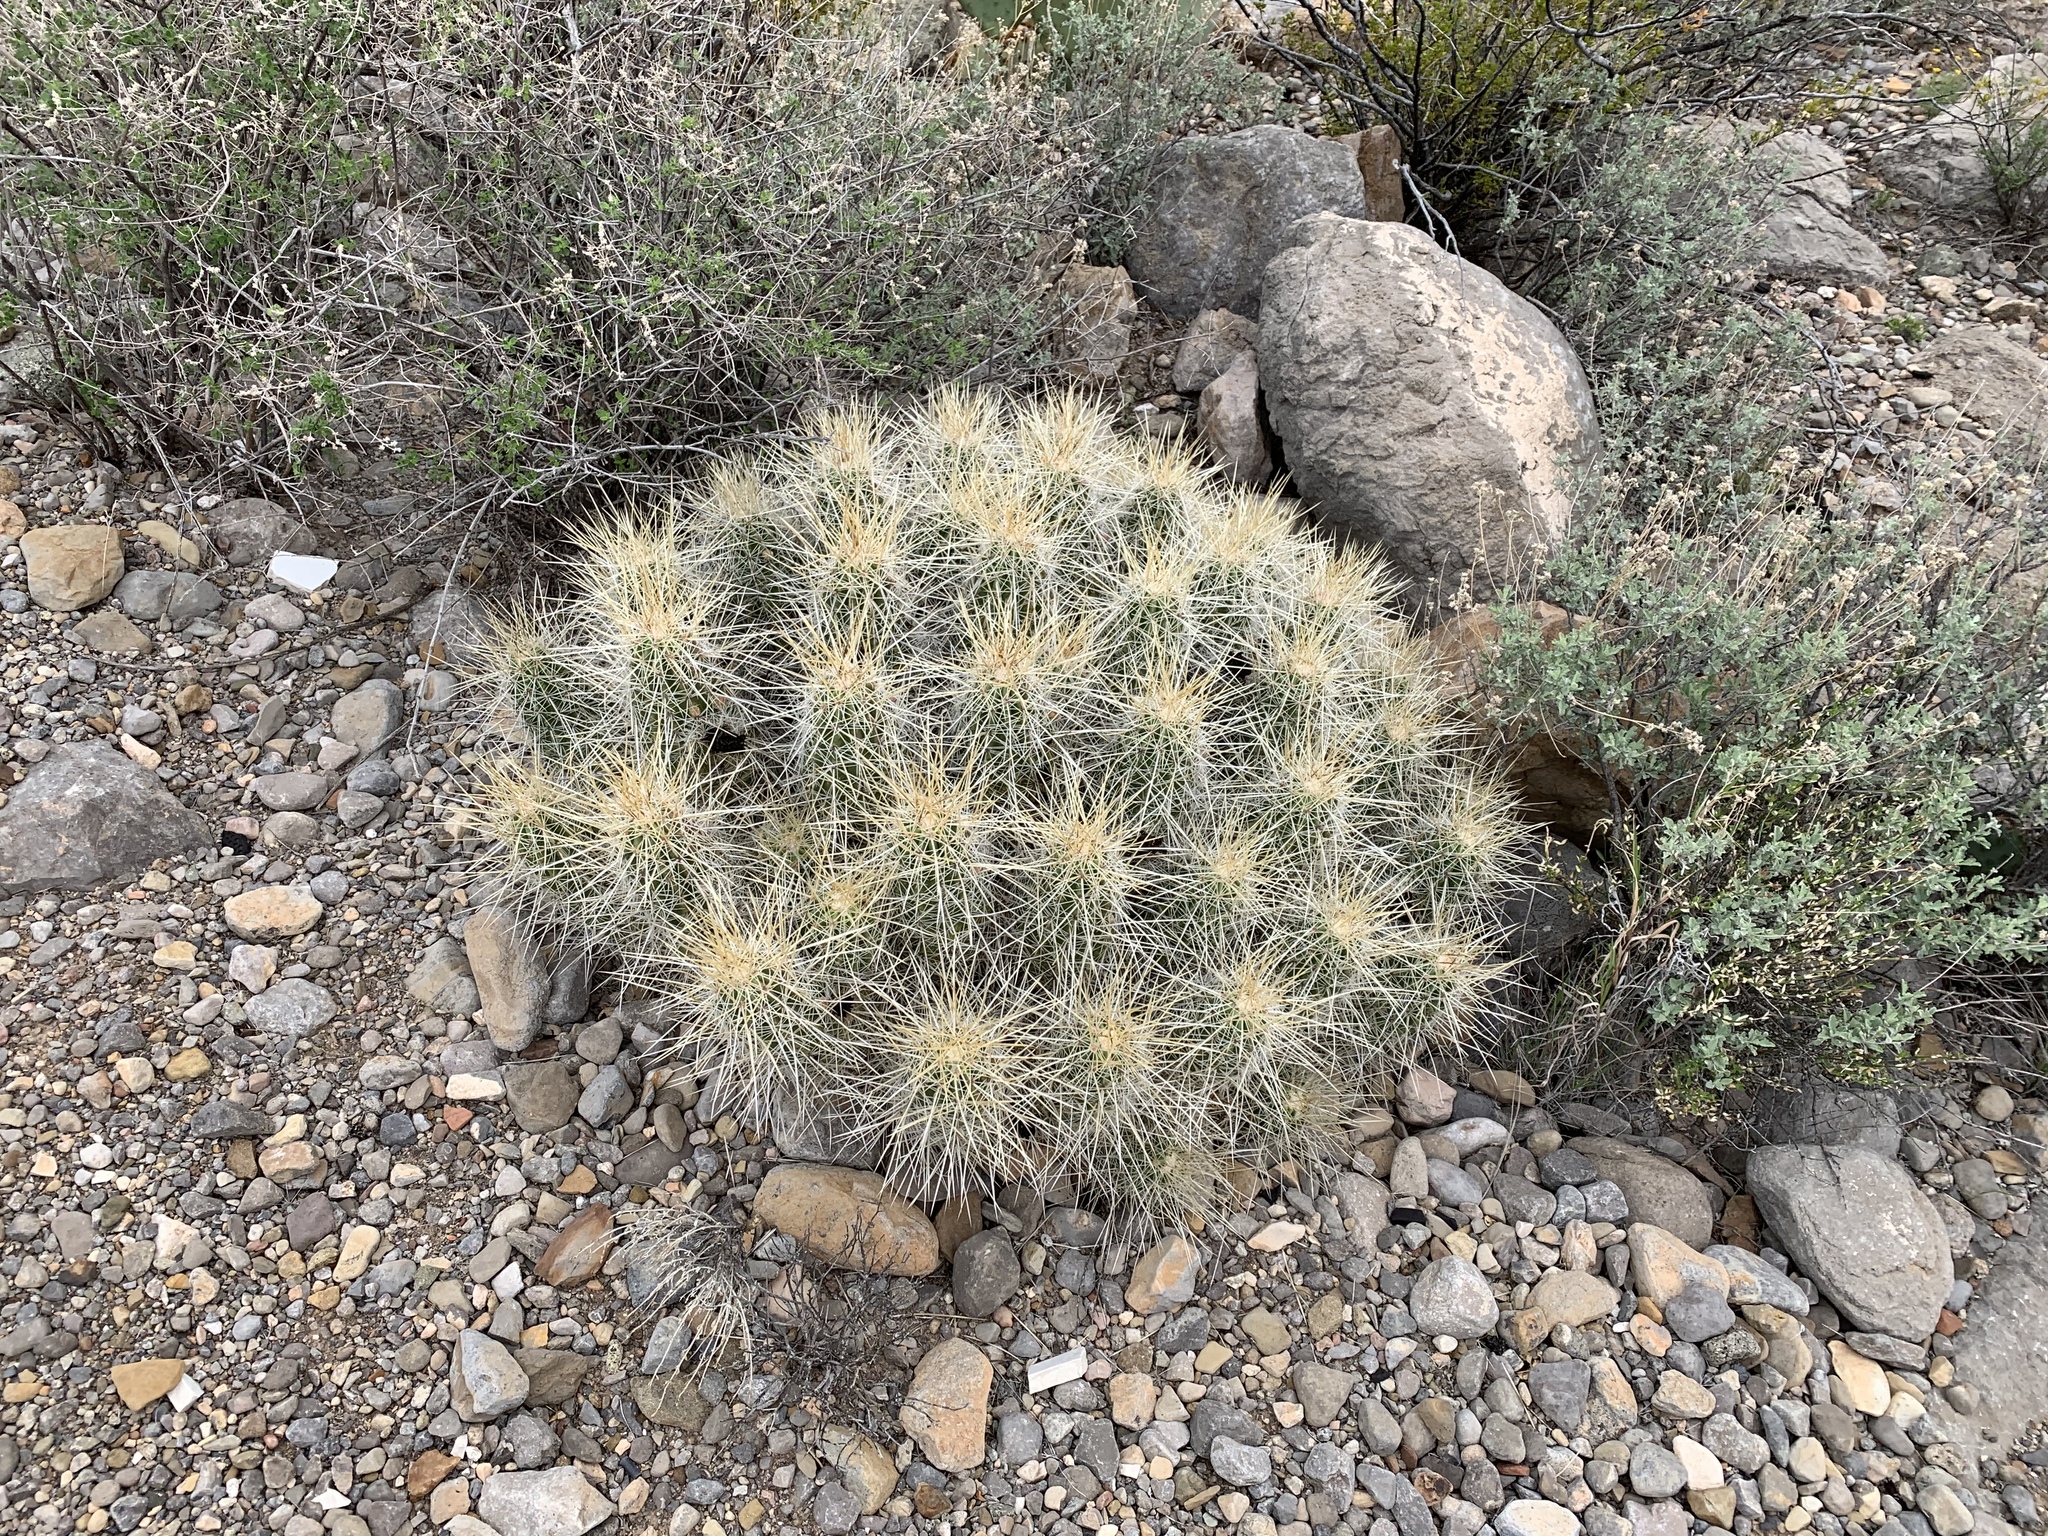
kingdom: Plantae
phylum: Tracheophyta
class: Magnoliopsida
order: Caryophyllales
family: Cactaceae
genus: Echinocereus
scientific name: Echinocereus stramineus
